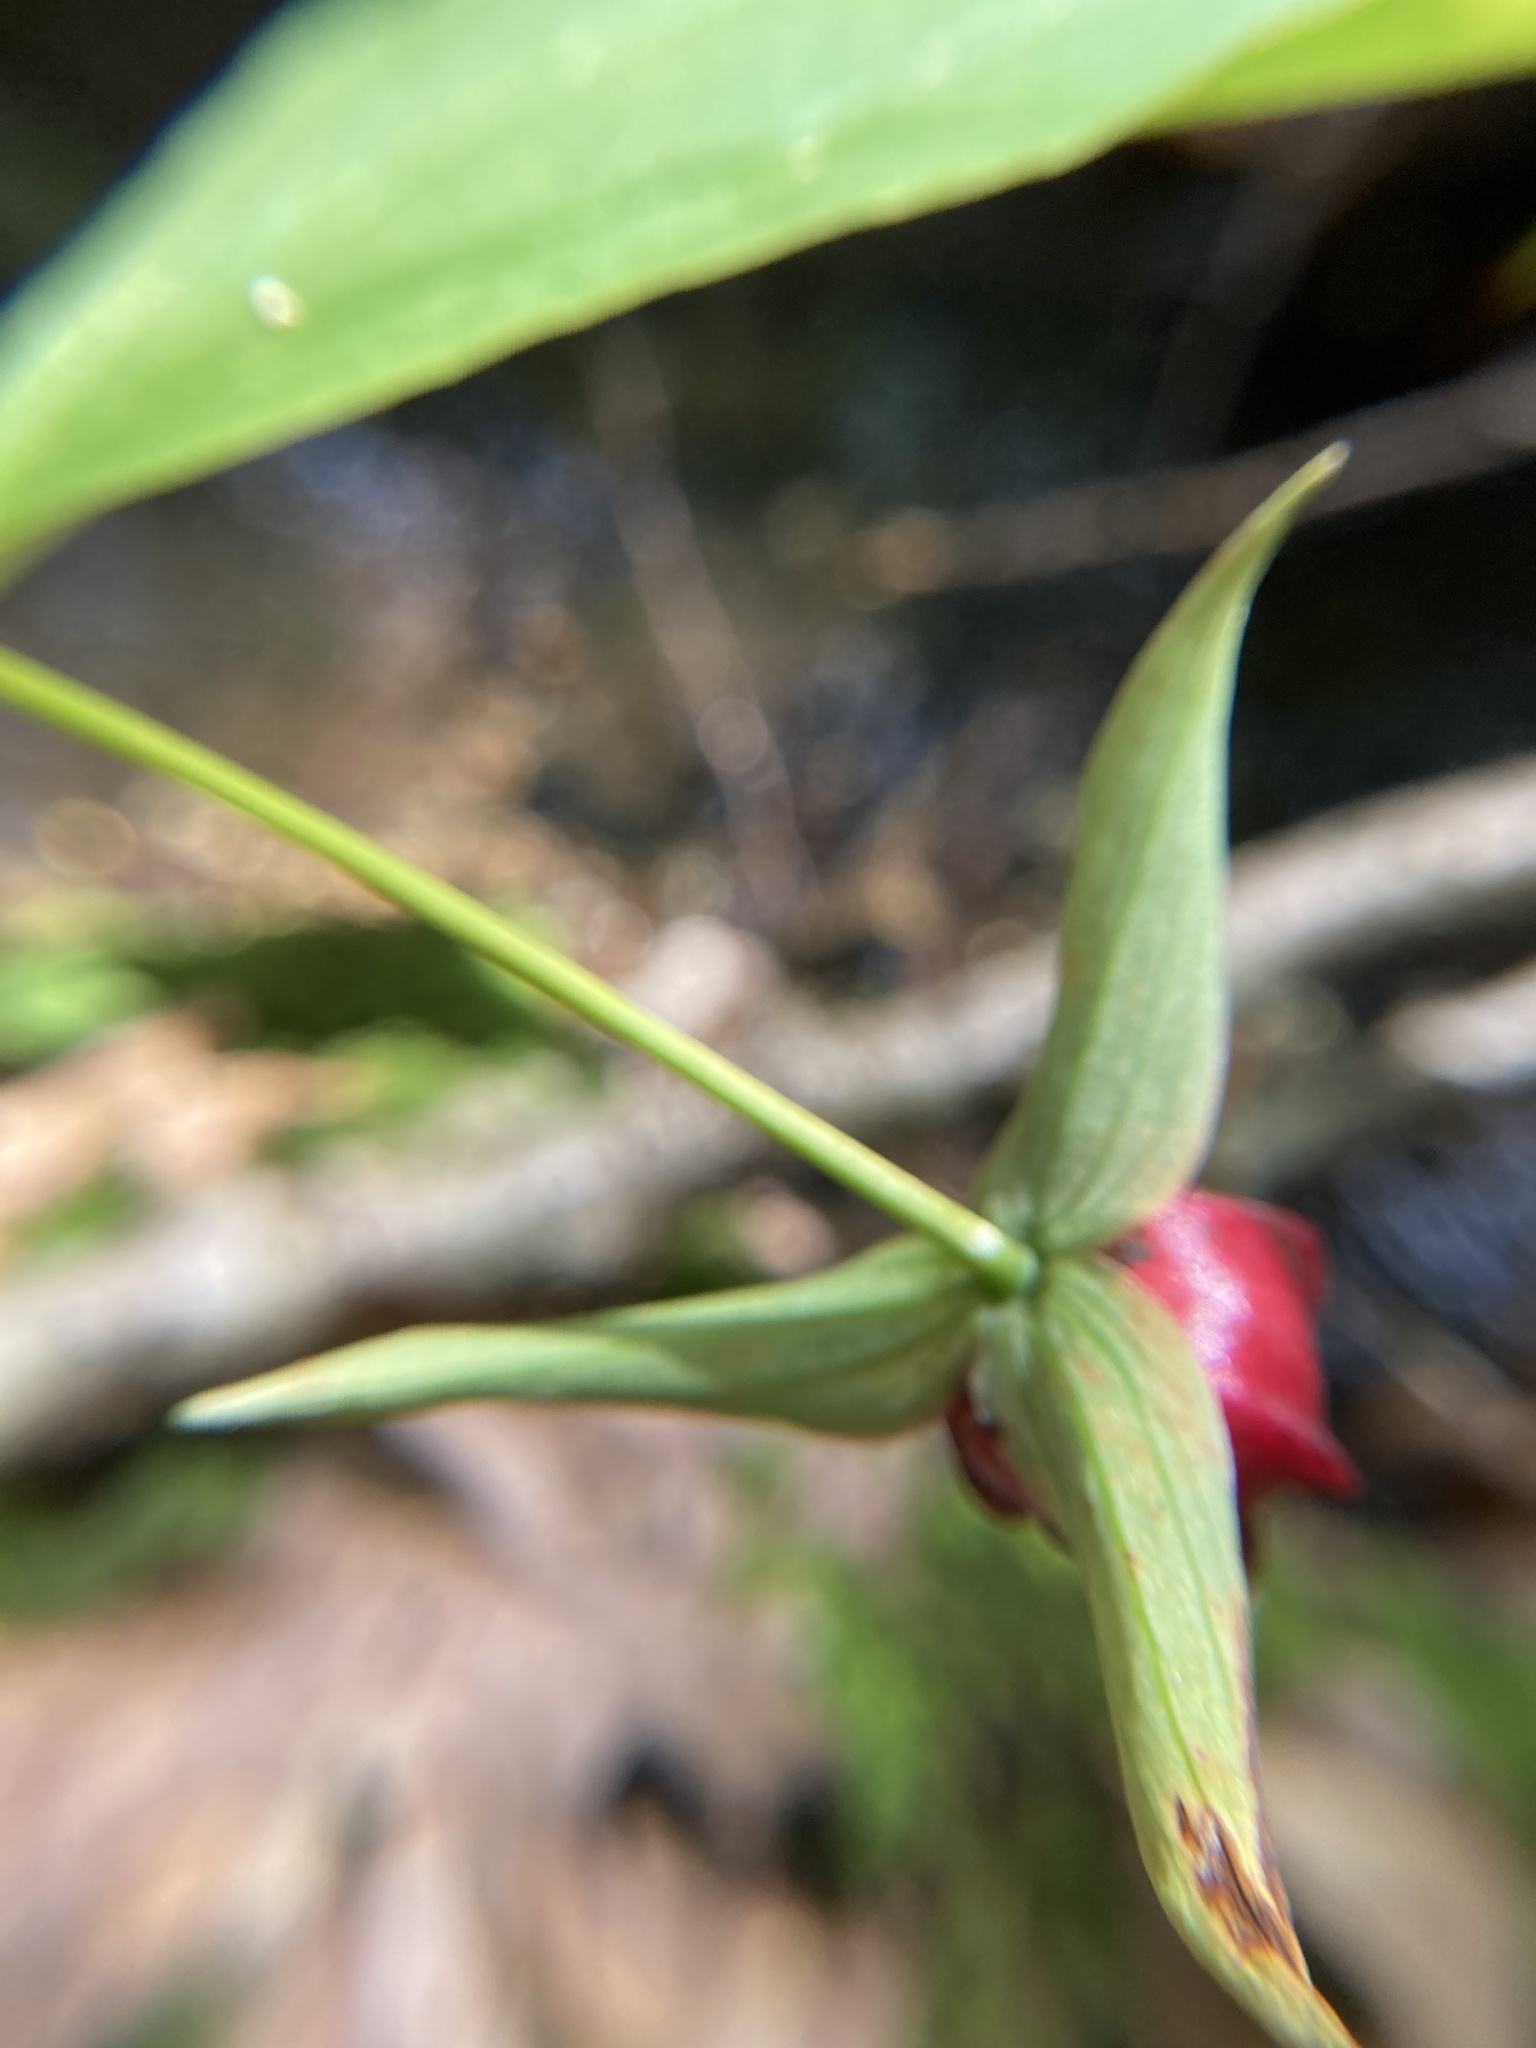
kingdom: Plantae
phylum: Tracheophyta
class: Liliopsida
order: Liliales
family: Melanthiaceae
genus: Trillium
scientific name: Trillium erectum
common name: Purple trillium
